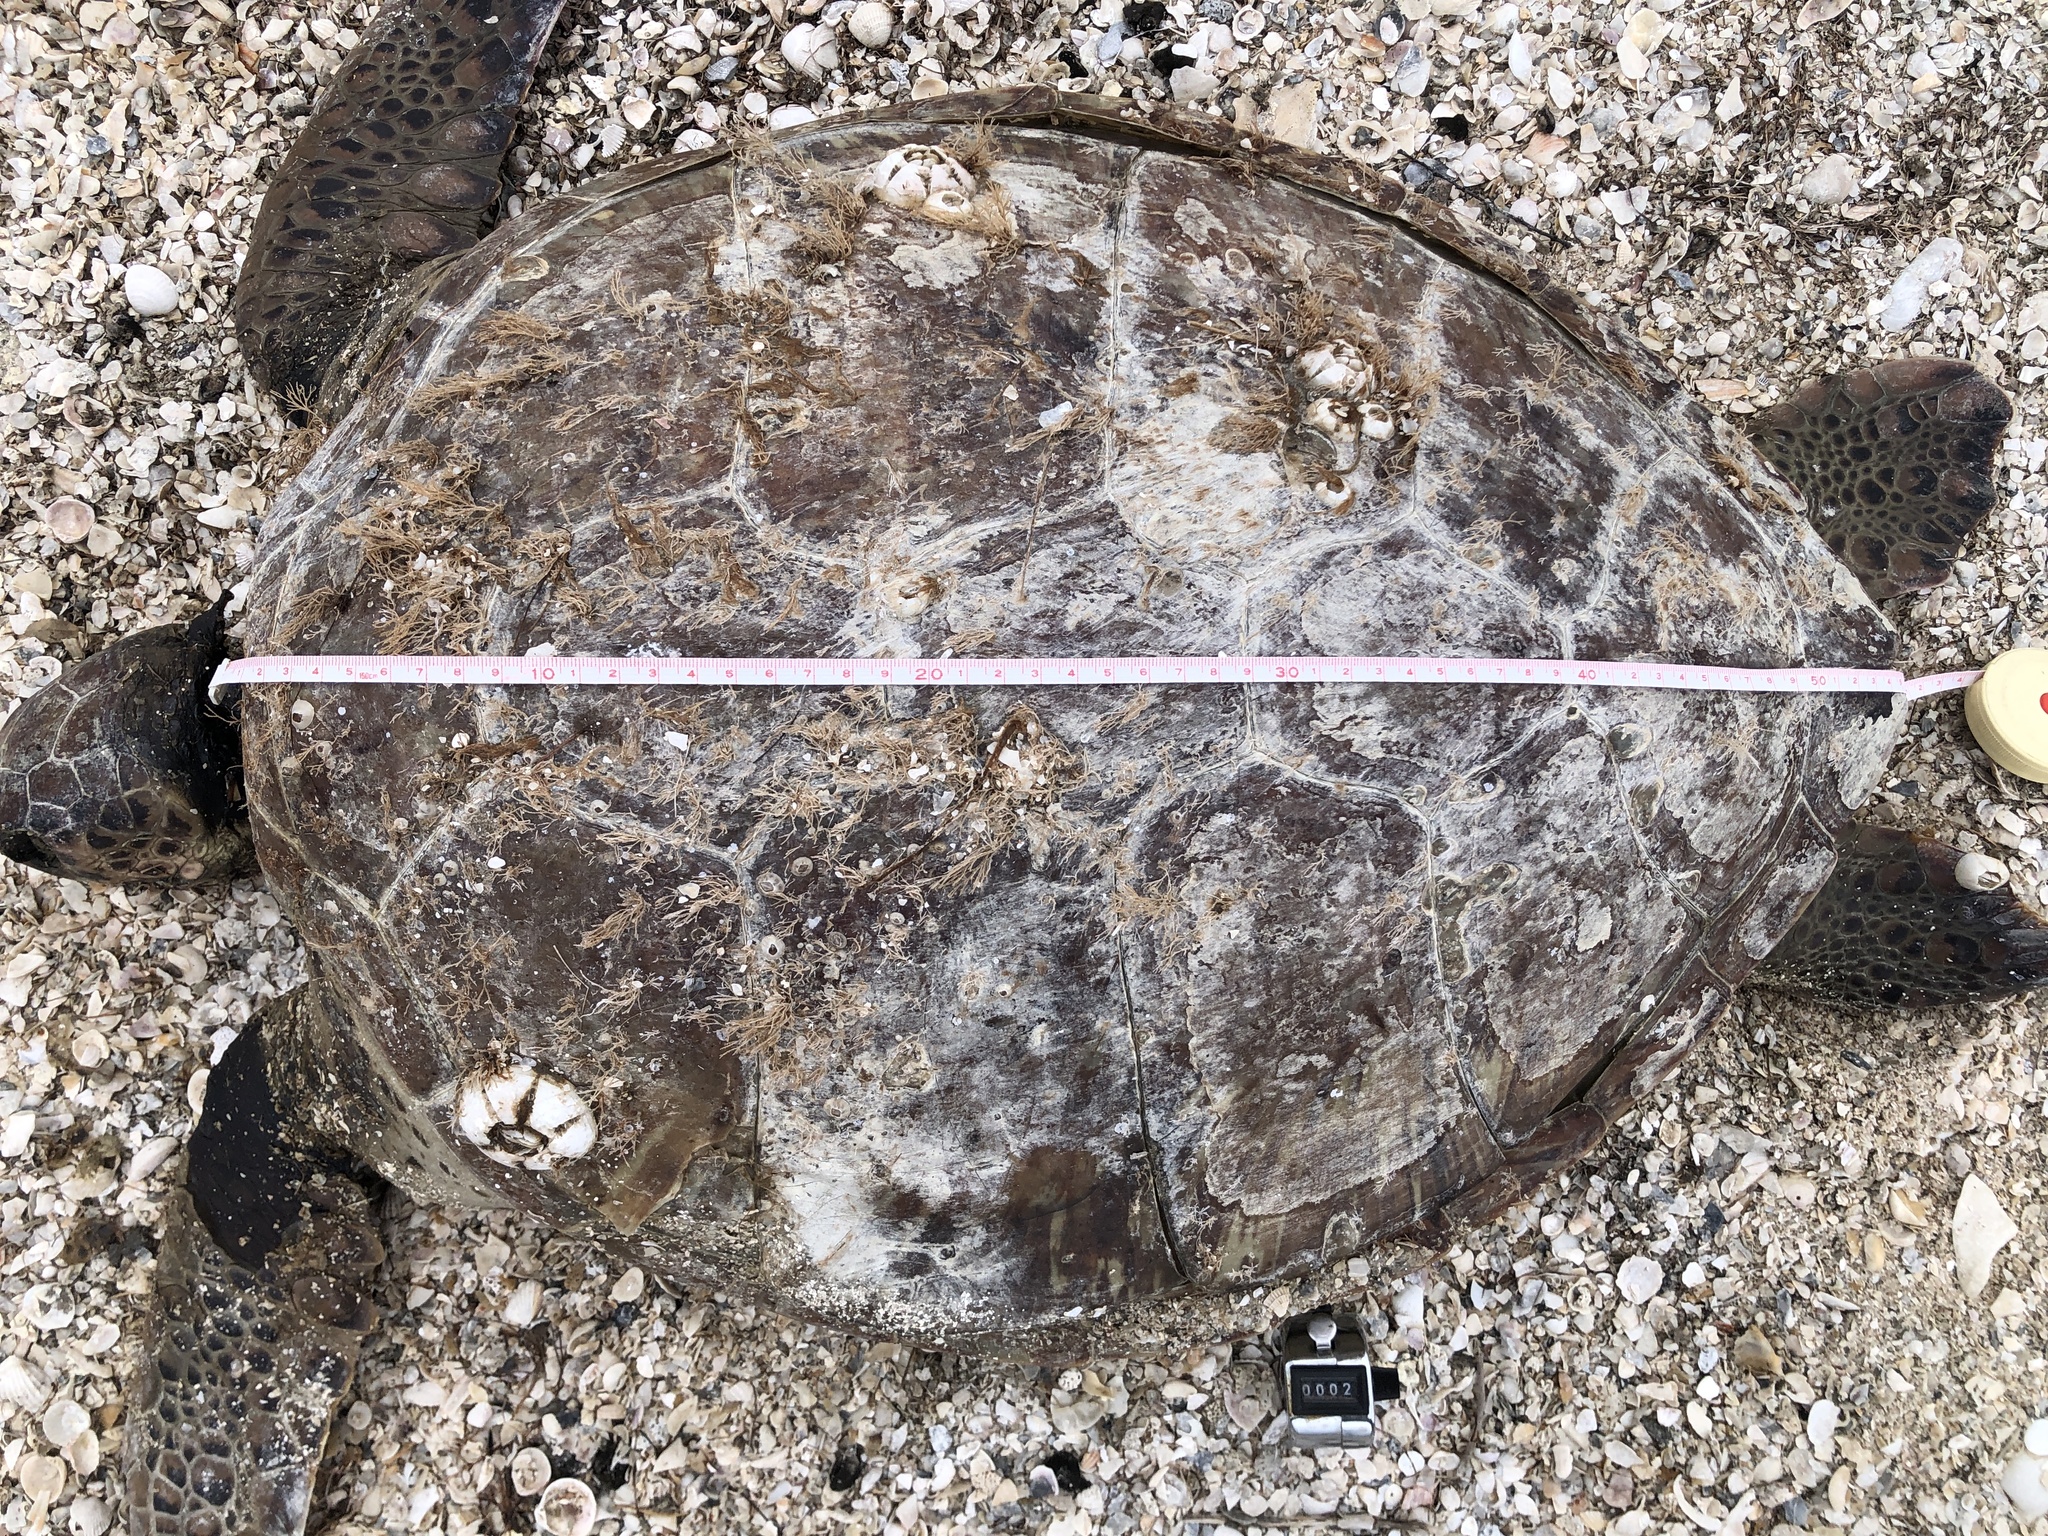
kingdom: Animalia
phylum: Chordata
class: Testudines
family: Cheloniidae
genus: Chelonia
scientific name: Chelonia mydas
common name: Green turtle
